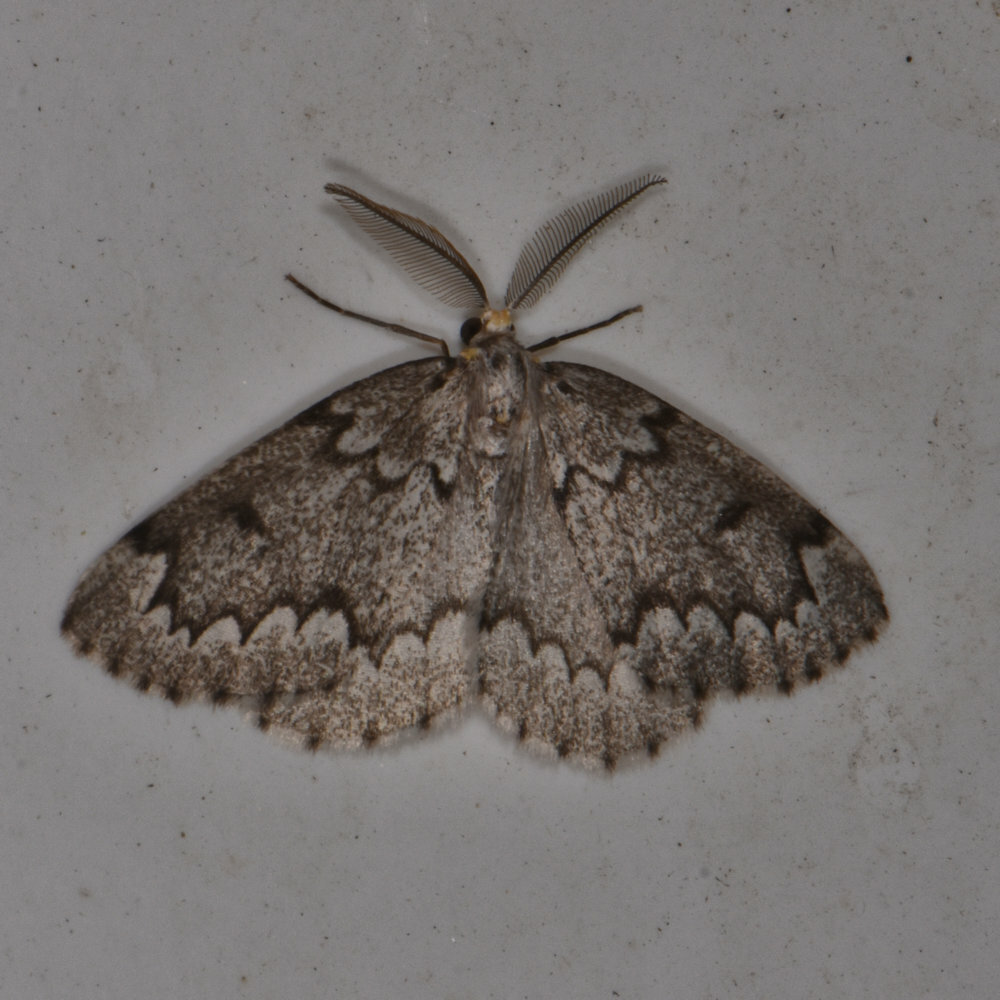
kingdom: Animalia
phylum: Arthropoda
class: Insecta
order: Lepidoptera
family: Geometridae
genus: Nepytia
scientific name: Nepytia canosaria
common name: False hemlock looper
